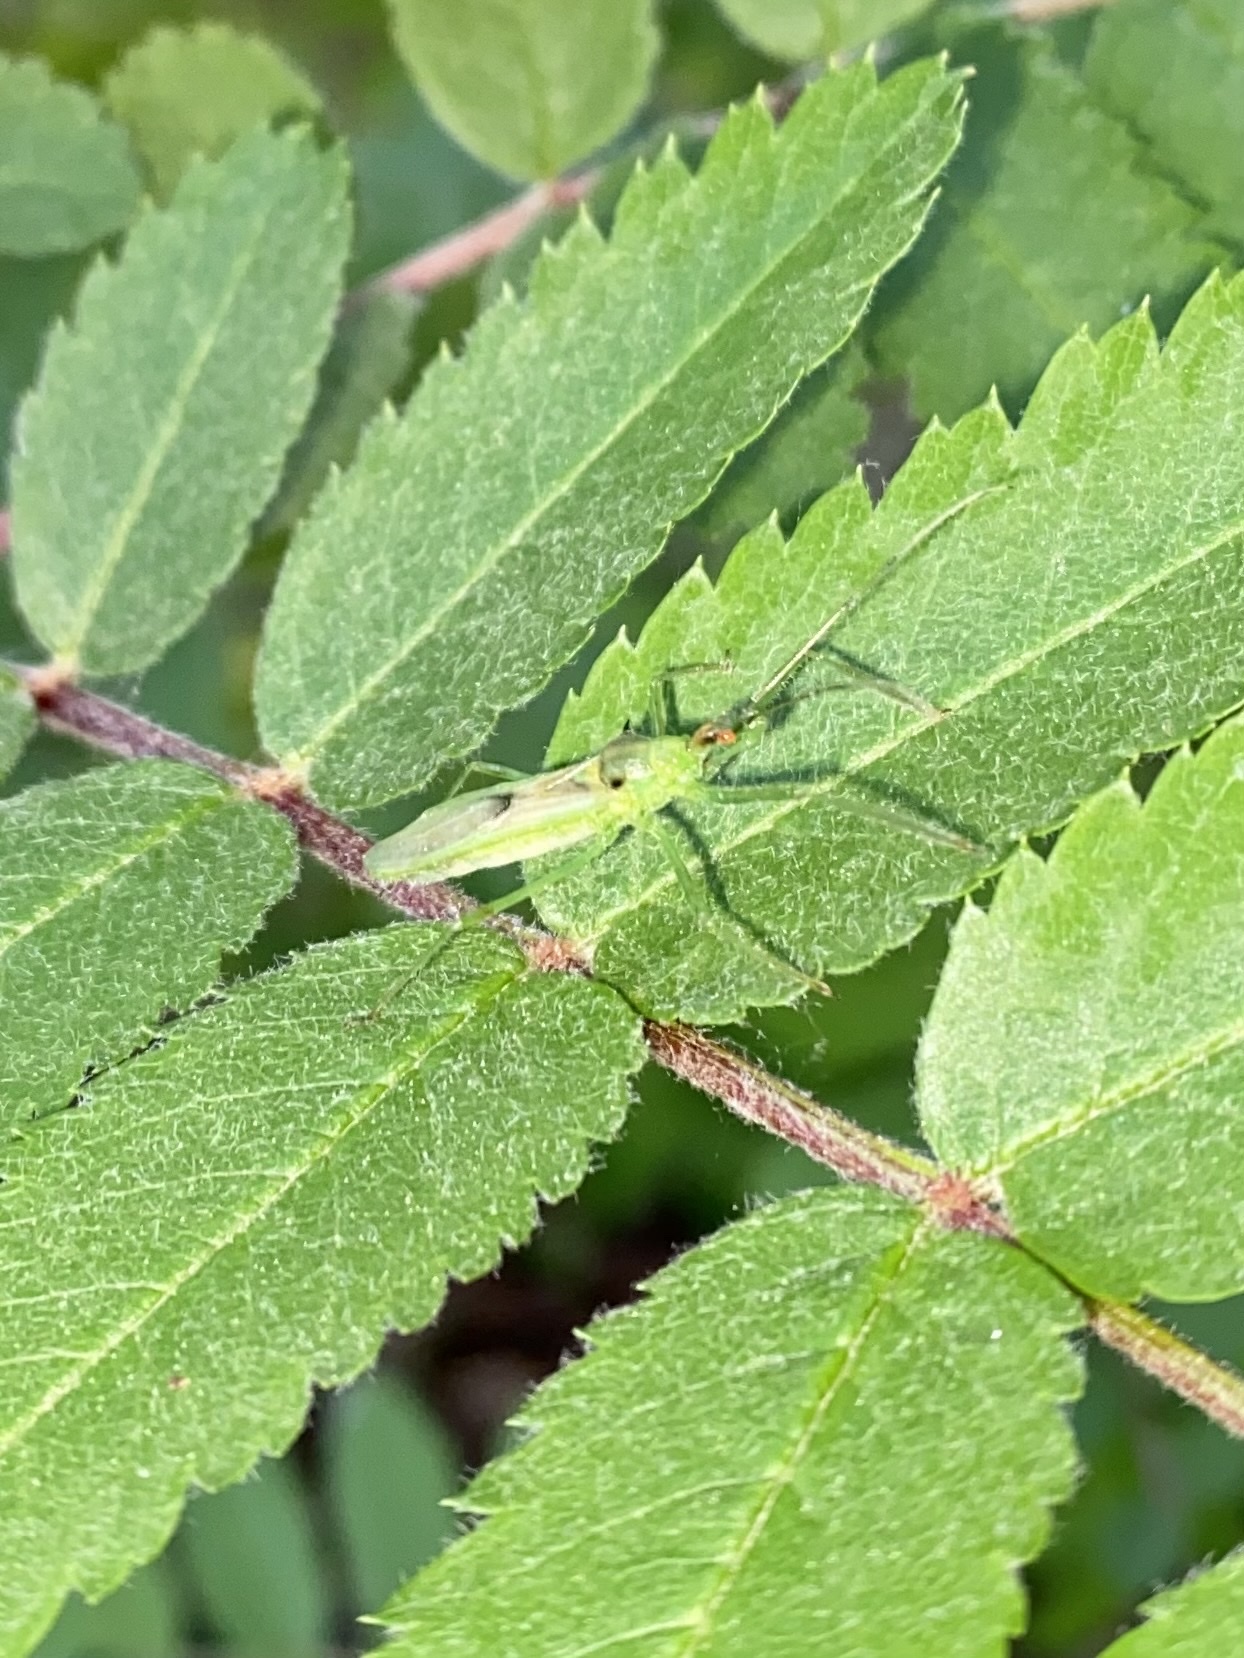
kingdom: Animalia
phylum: Arthropoda
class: Insecta
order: Hemiptera
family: Reduviidae
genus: Zelus
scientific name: Zelus luridus
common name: Pale green assassin bug
